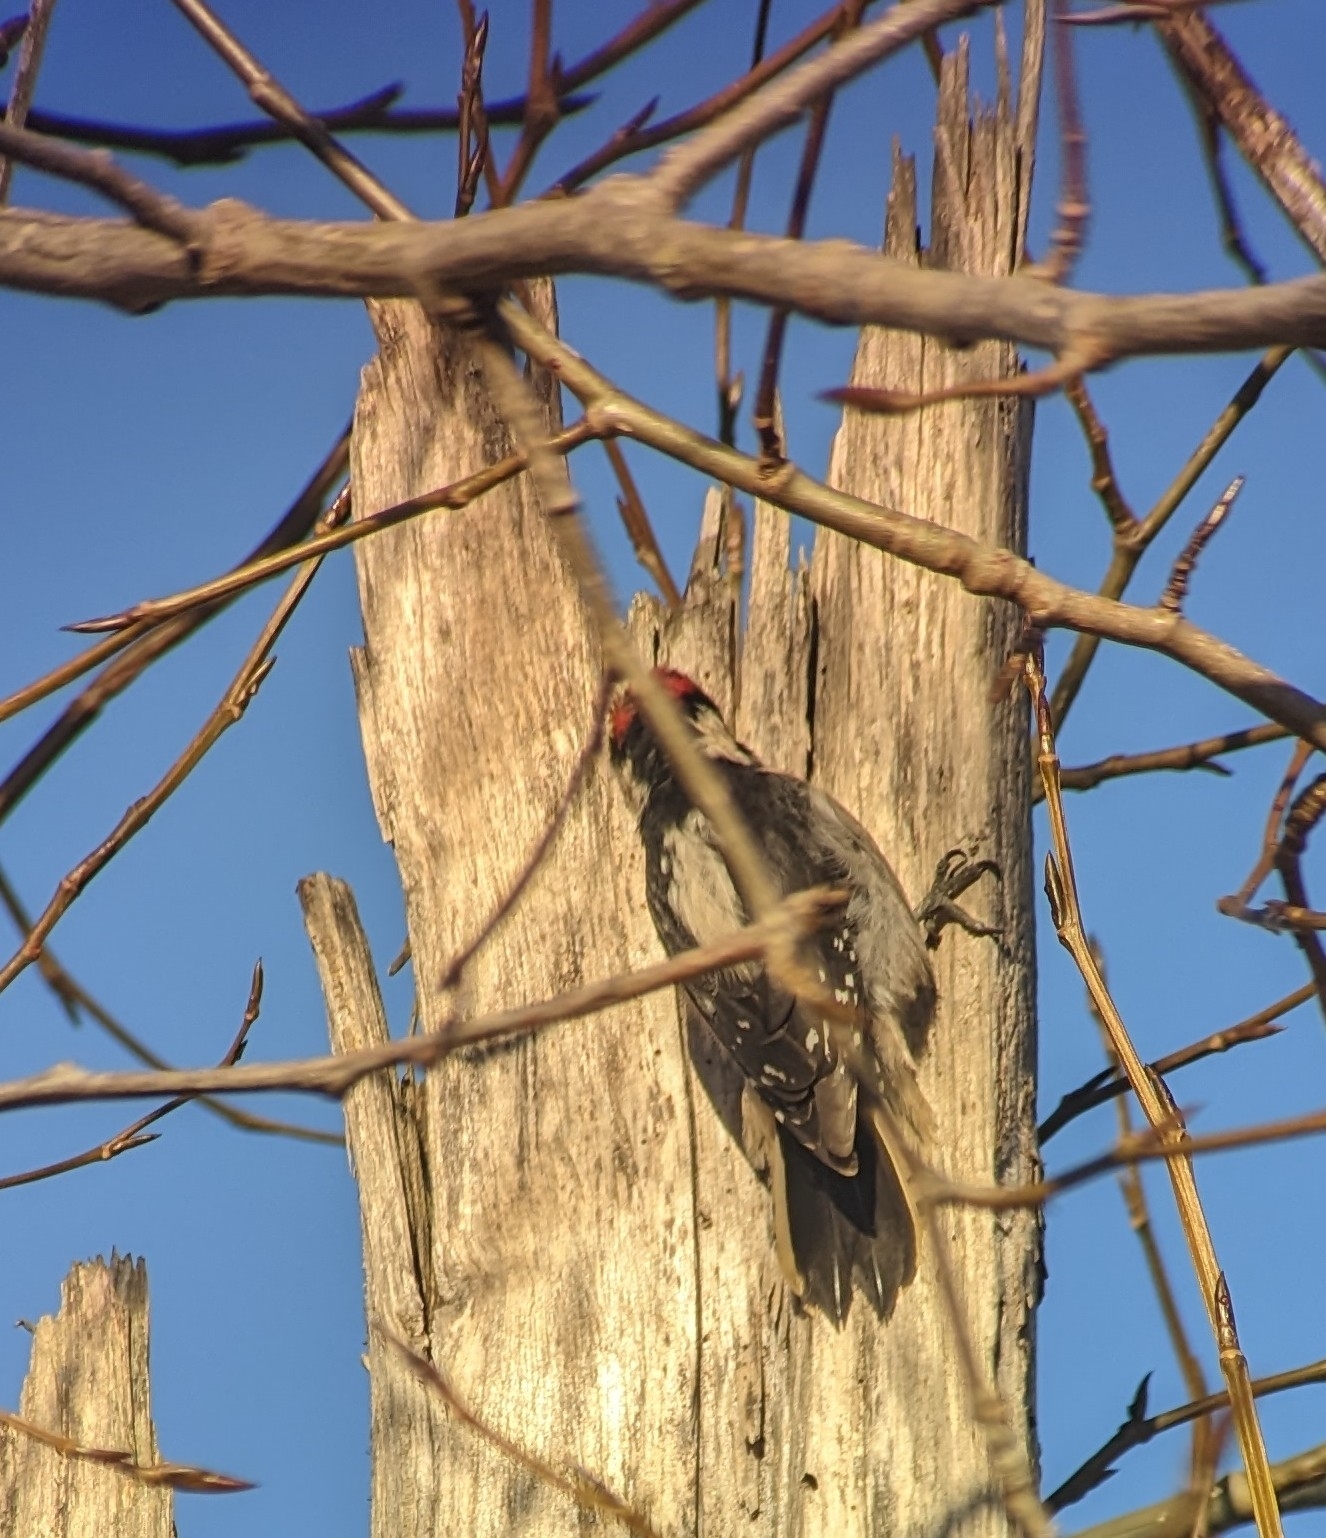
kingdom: Animalia
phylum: Chordata
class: Aves
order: Piciformes
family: Picidae
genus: Dryobates
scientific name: Dryobates pubescens
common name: Downy woodpecker
